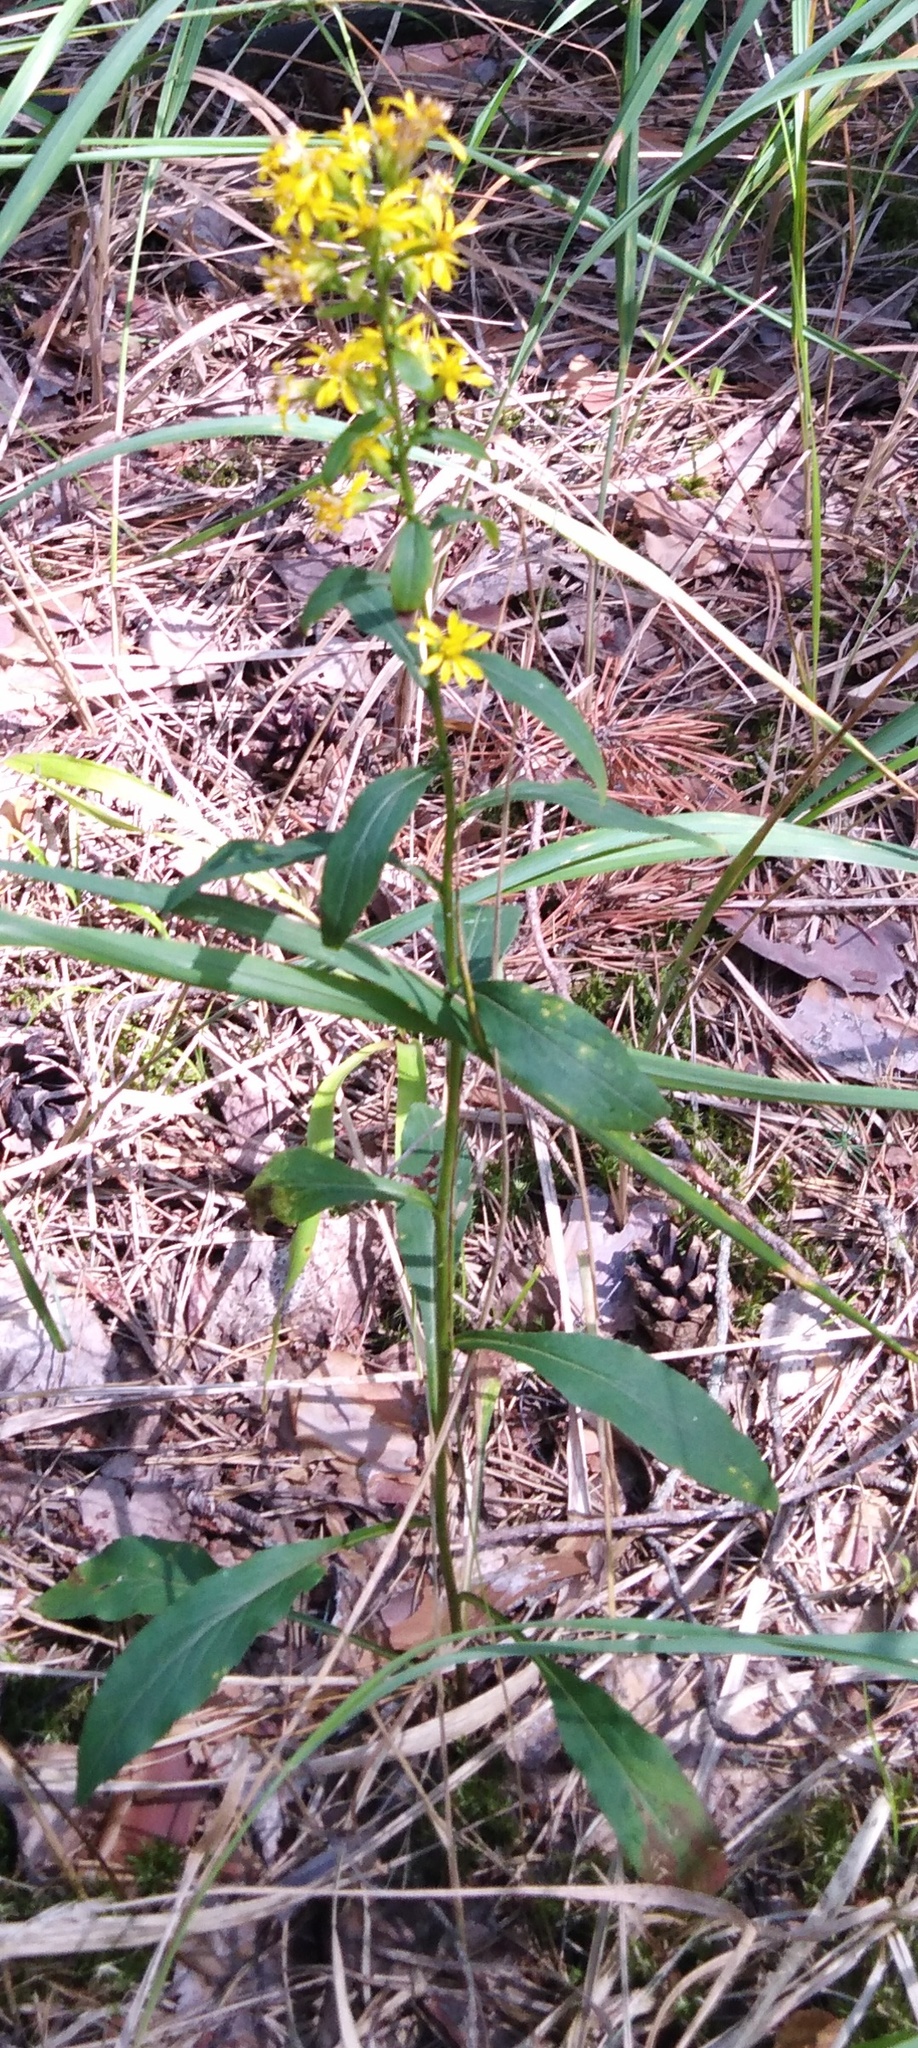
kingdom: Plantae
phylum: Tracheophyta
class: Magnoliopsida
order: Asterales
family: Asteraceae
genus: Solidago
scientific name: Solidago virgaurea
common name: Goldenrod
